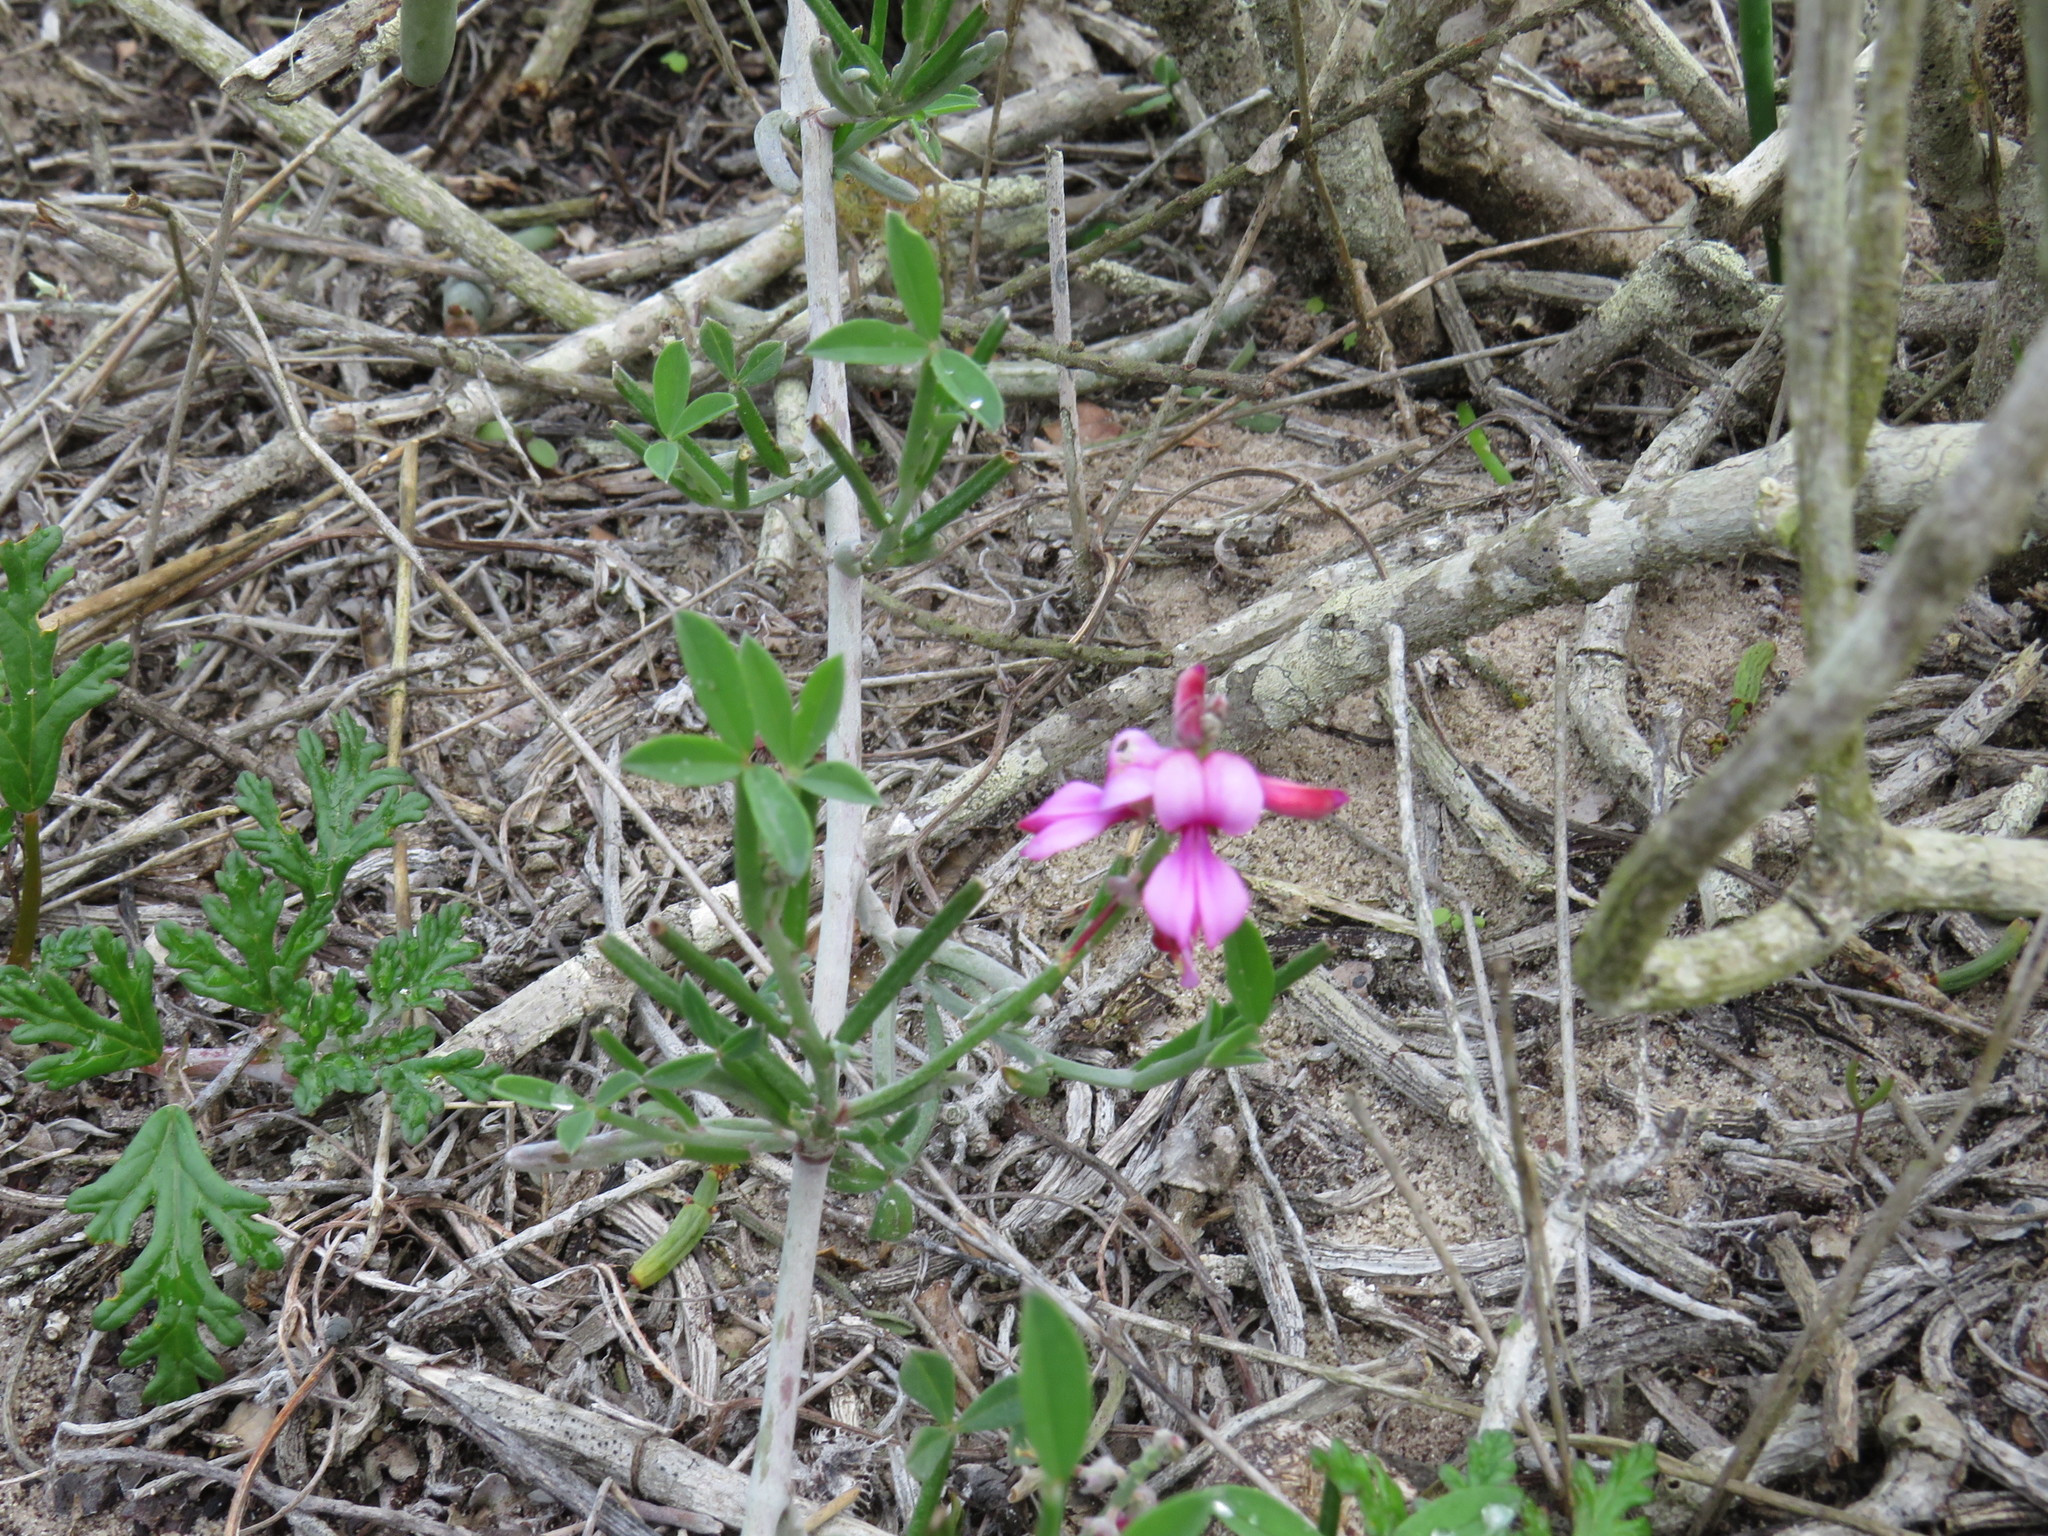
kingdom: Plantae
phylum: Tracheophyta
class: Magnoliopsida
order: Fabales
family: Fabaceae
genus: Indigofera
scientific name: Indigofera
